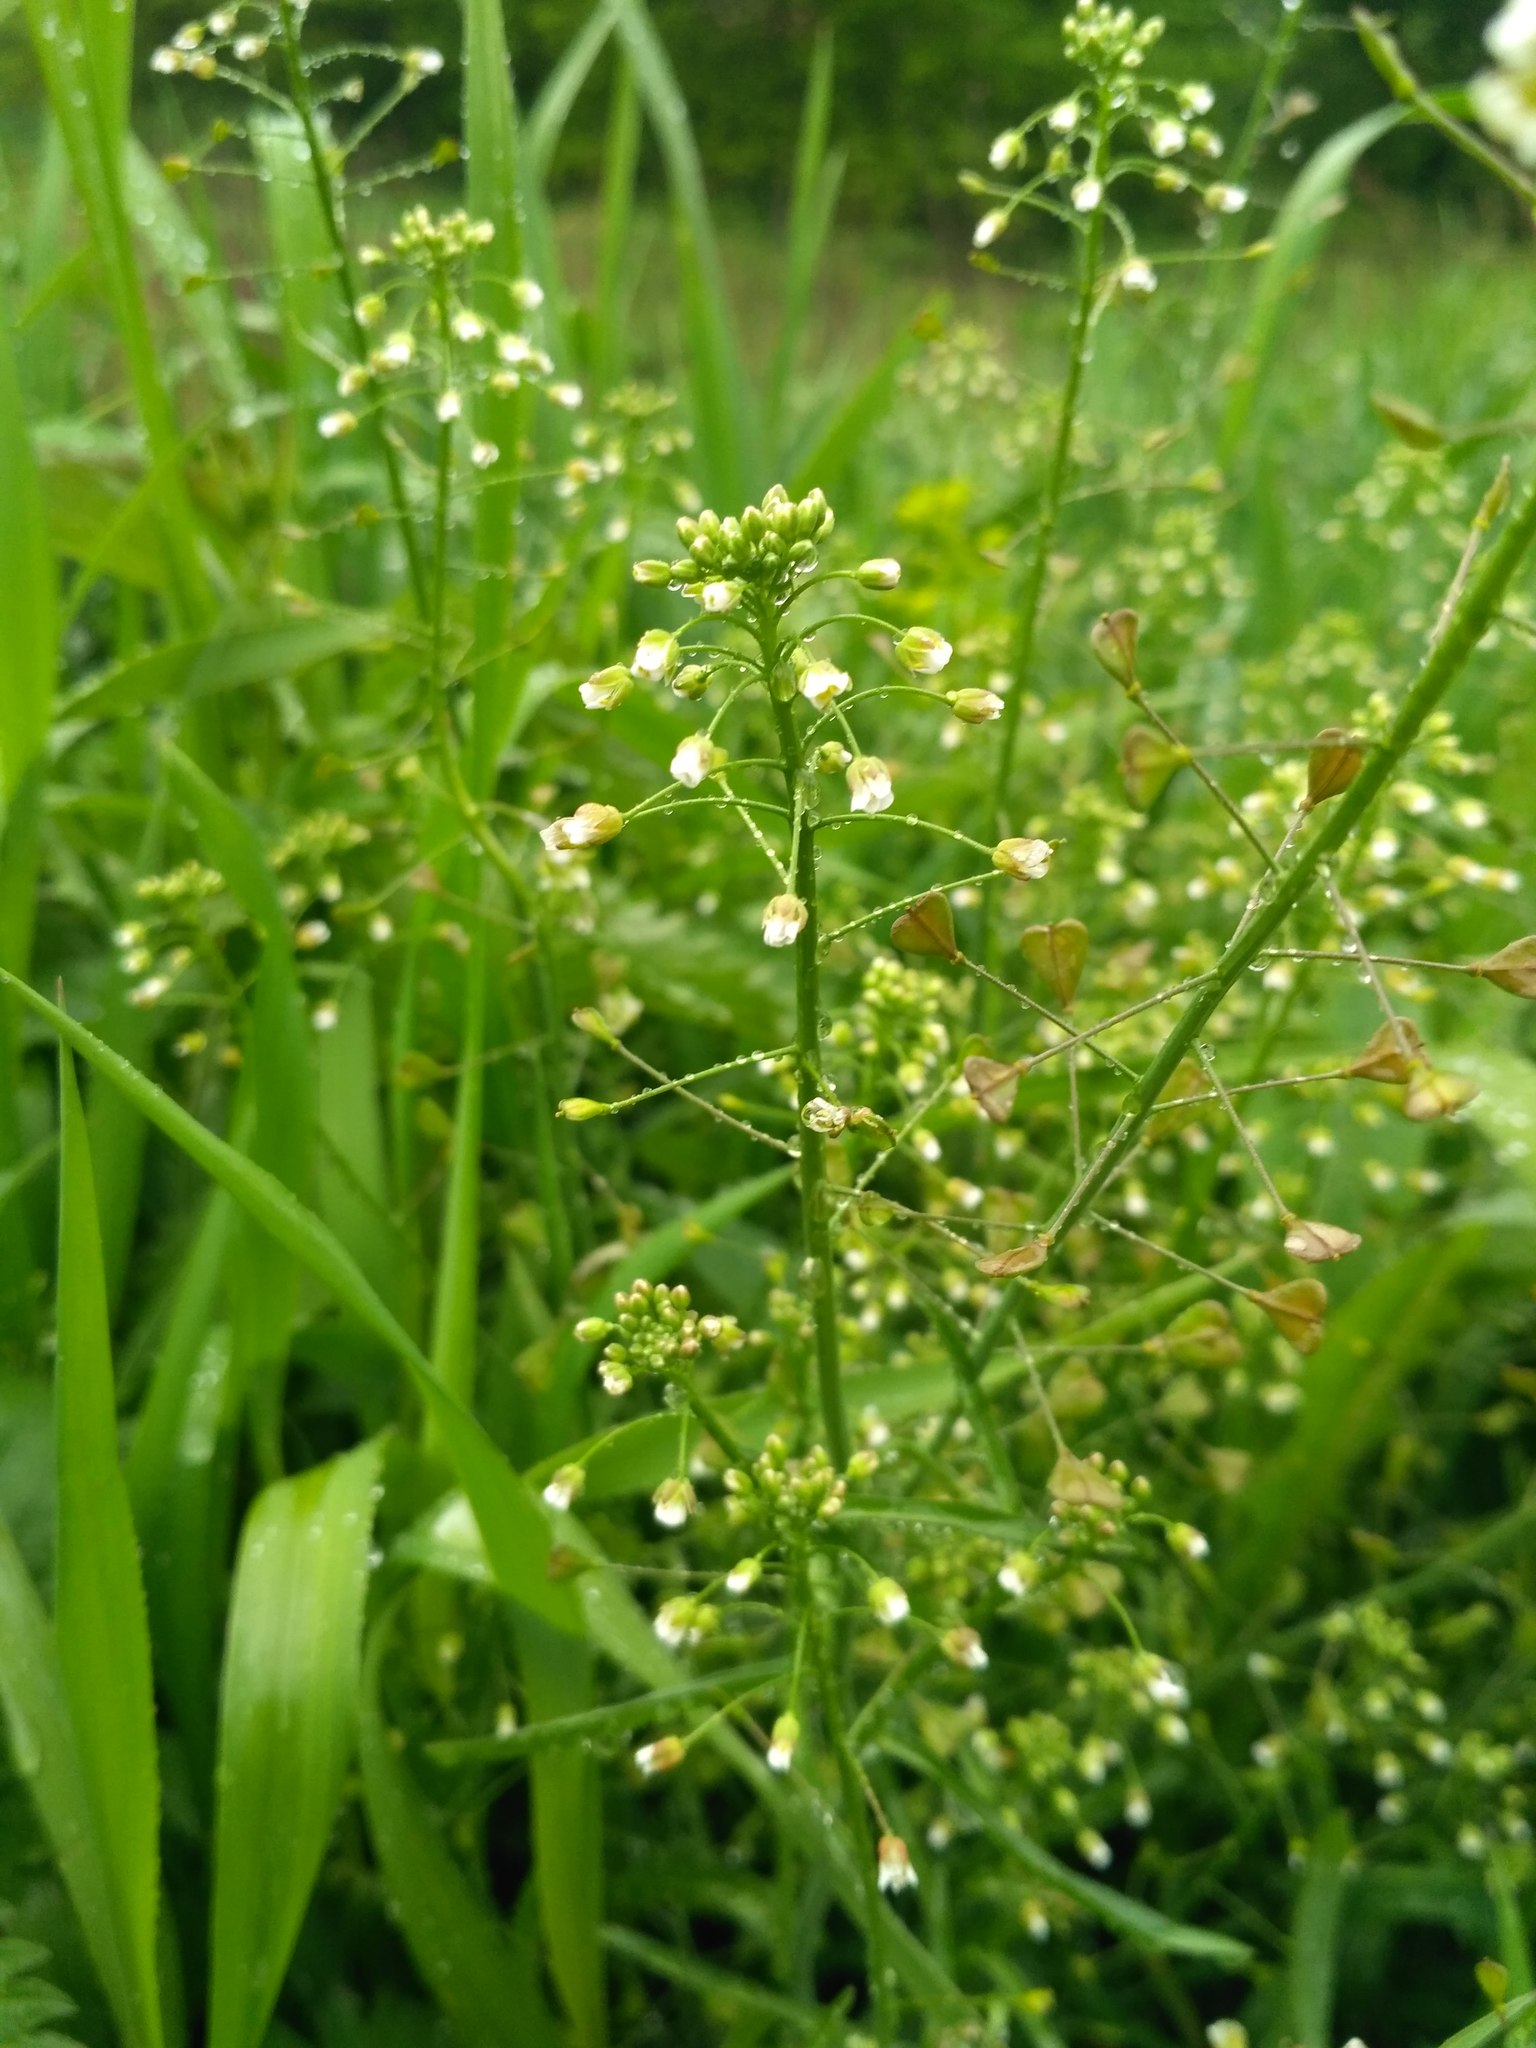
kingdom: Plantae
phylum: Tracheophyta
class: Magnoliopsida
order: Brassicales
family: Brassicaceae
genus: Capsella
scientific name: Capsella bursa-pastoris
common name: Shepherd's purse
